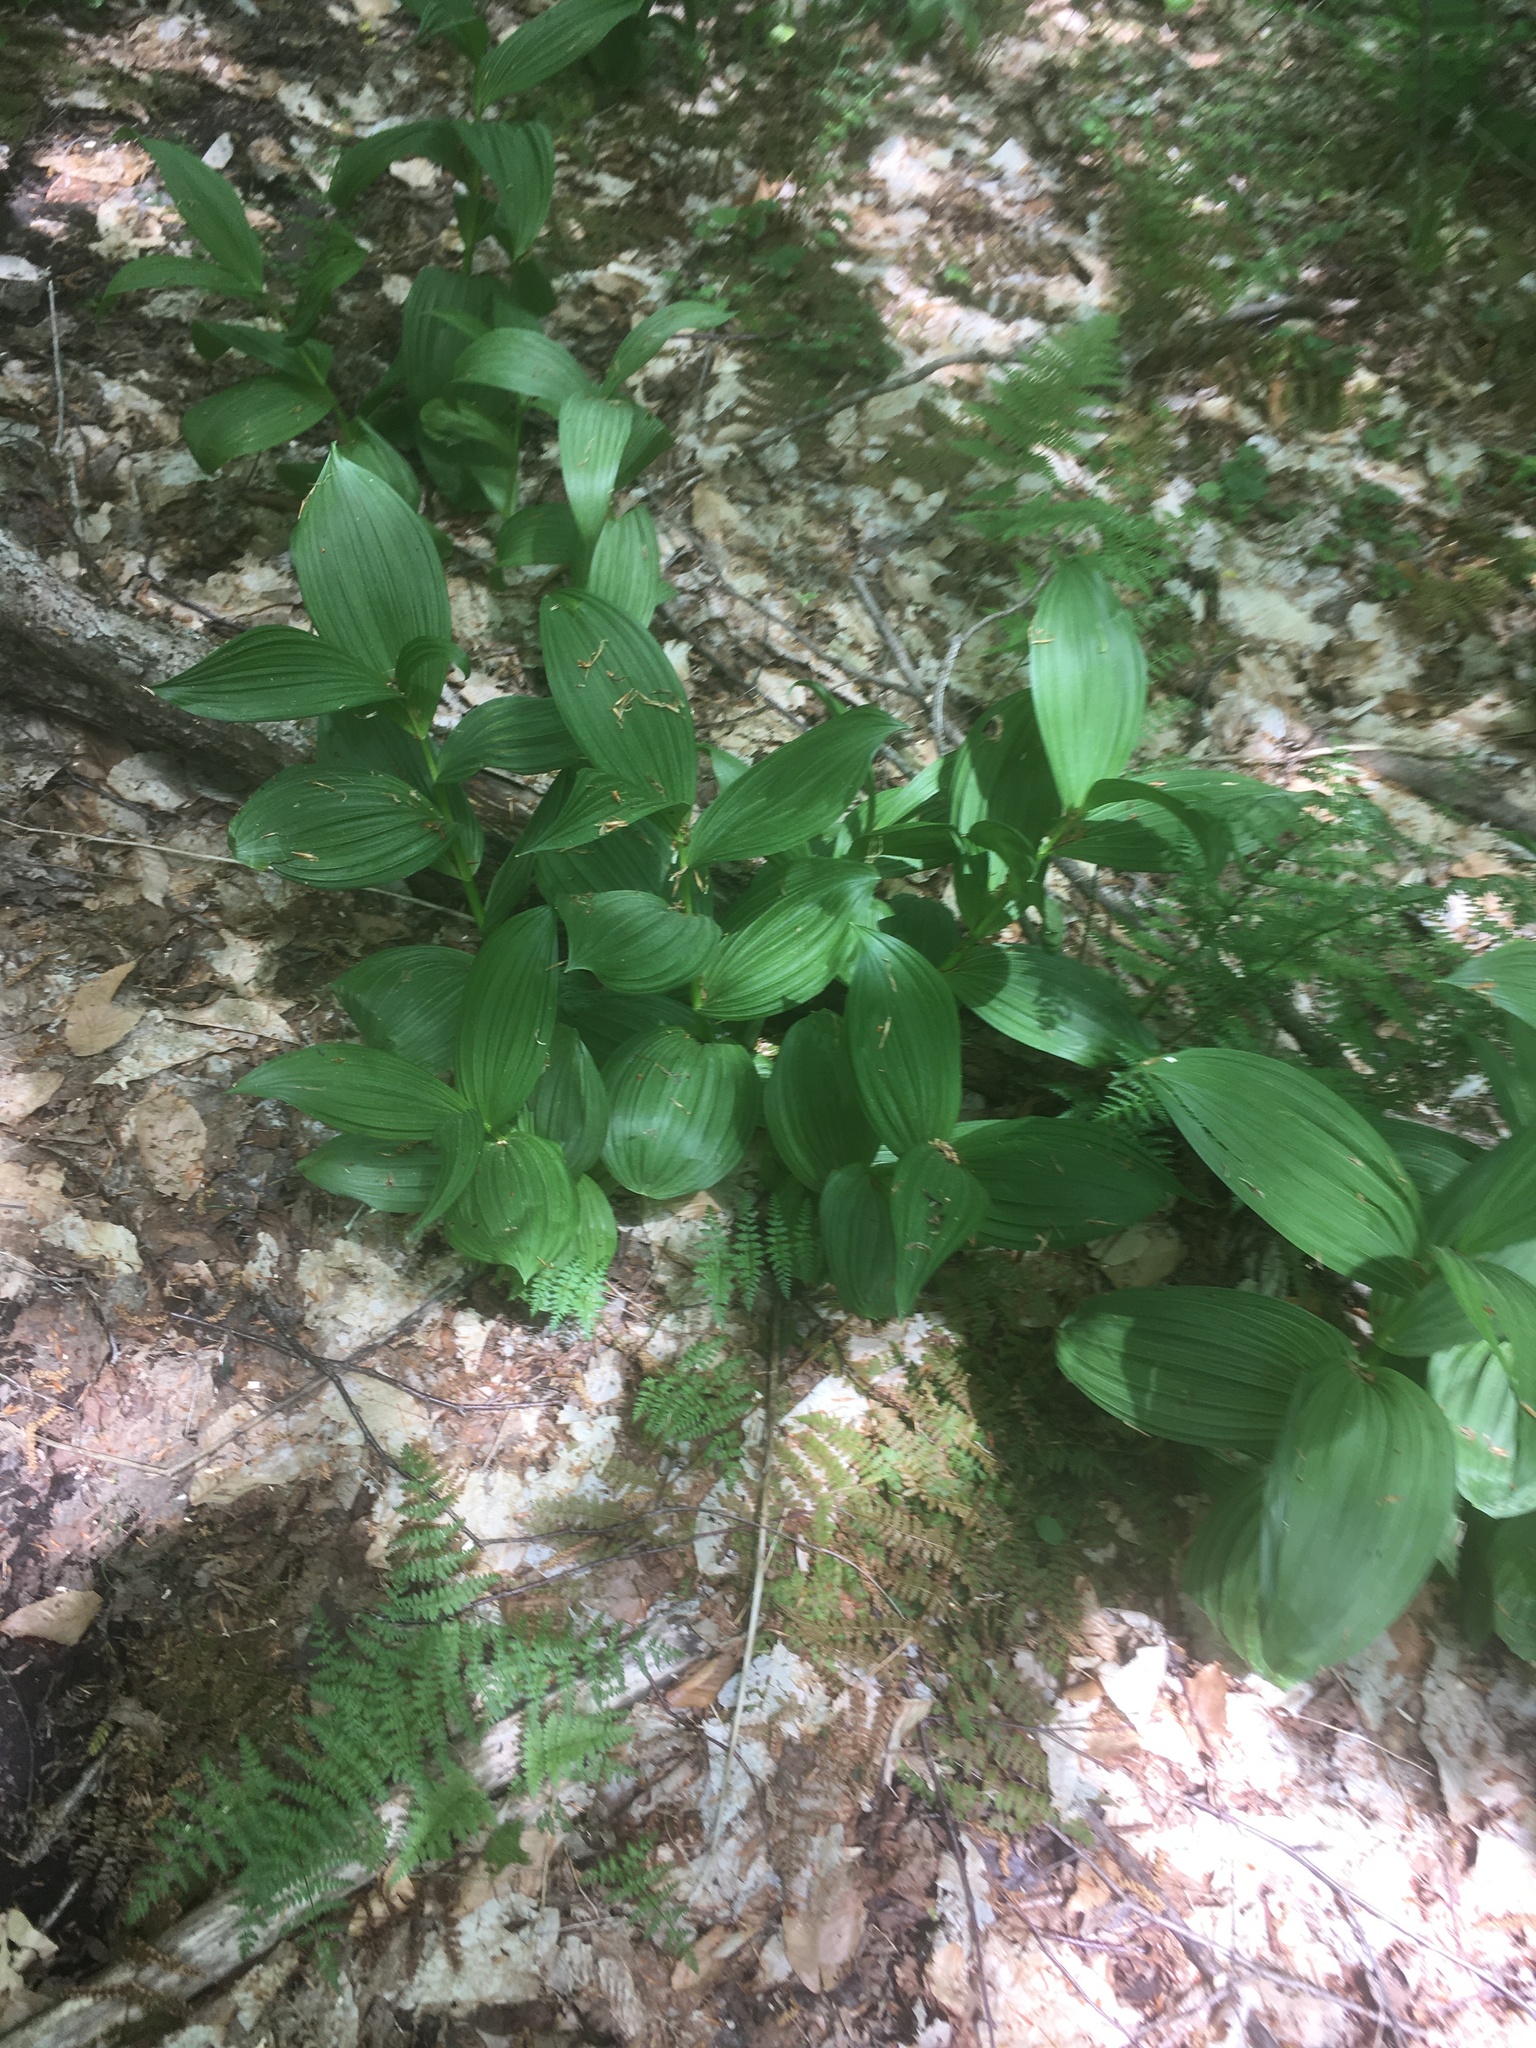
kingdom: Plantae
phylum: Tracheophyta
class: Liliopsida
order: Liliales
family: Melanthiaceae
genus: Veratrum
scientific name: Veratrum viride
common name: American false hellebore
